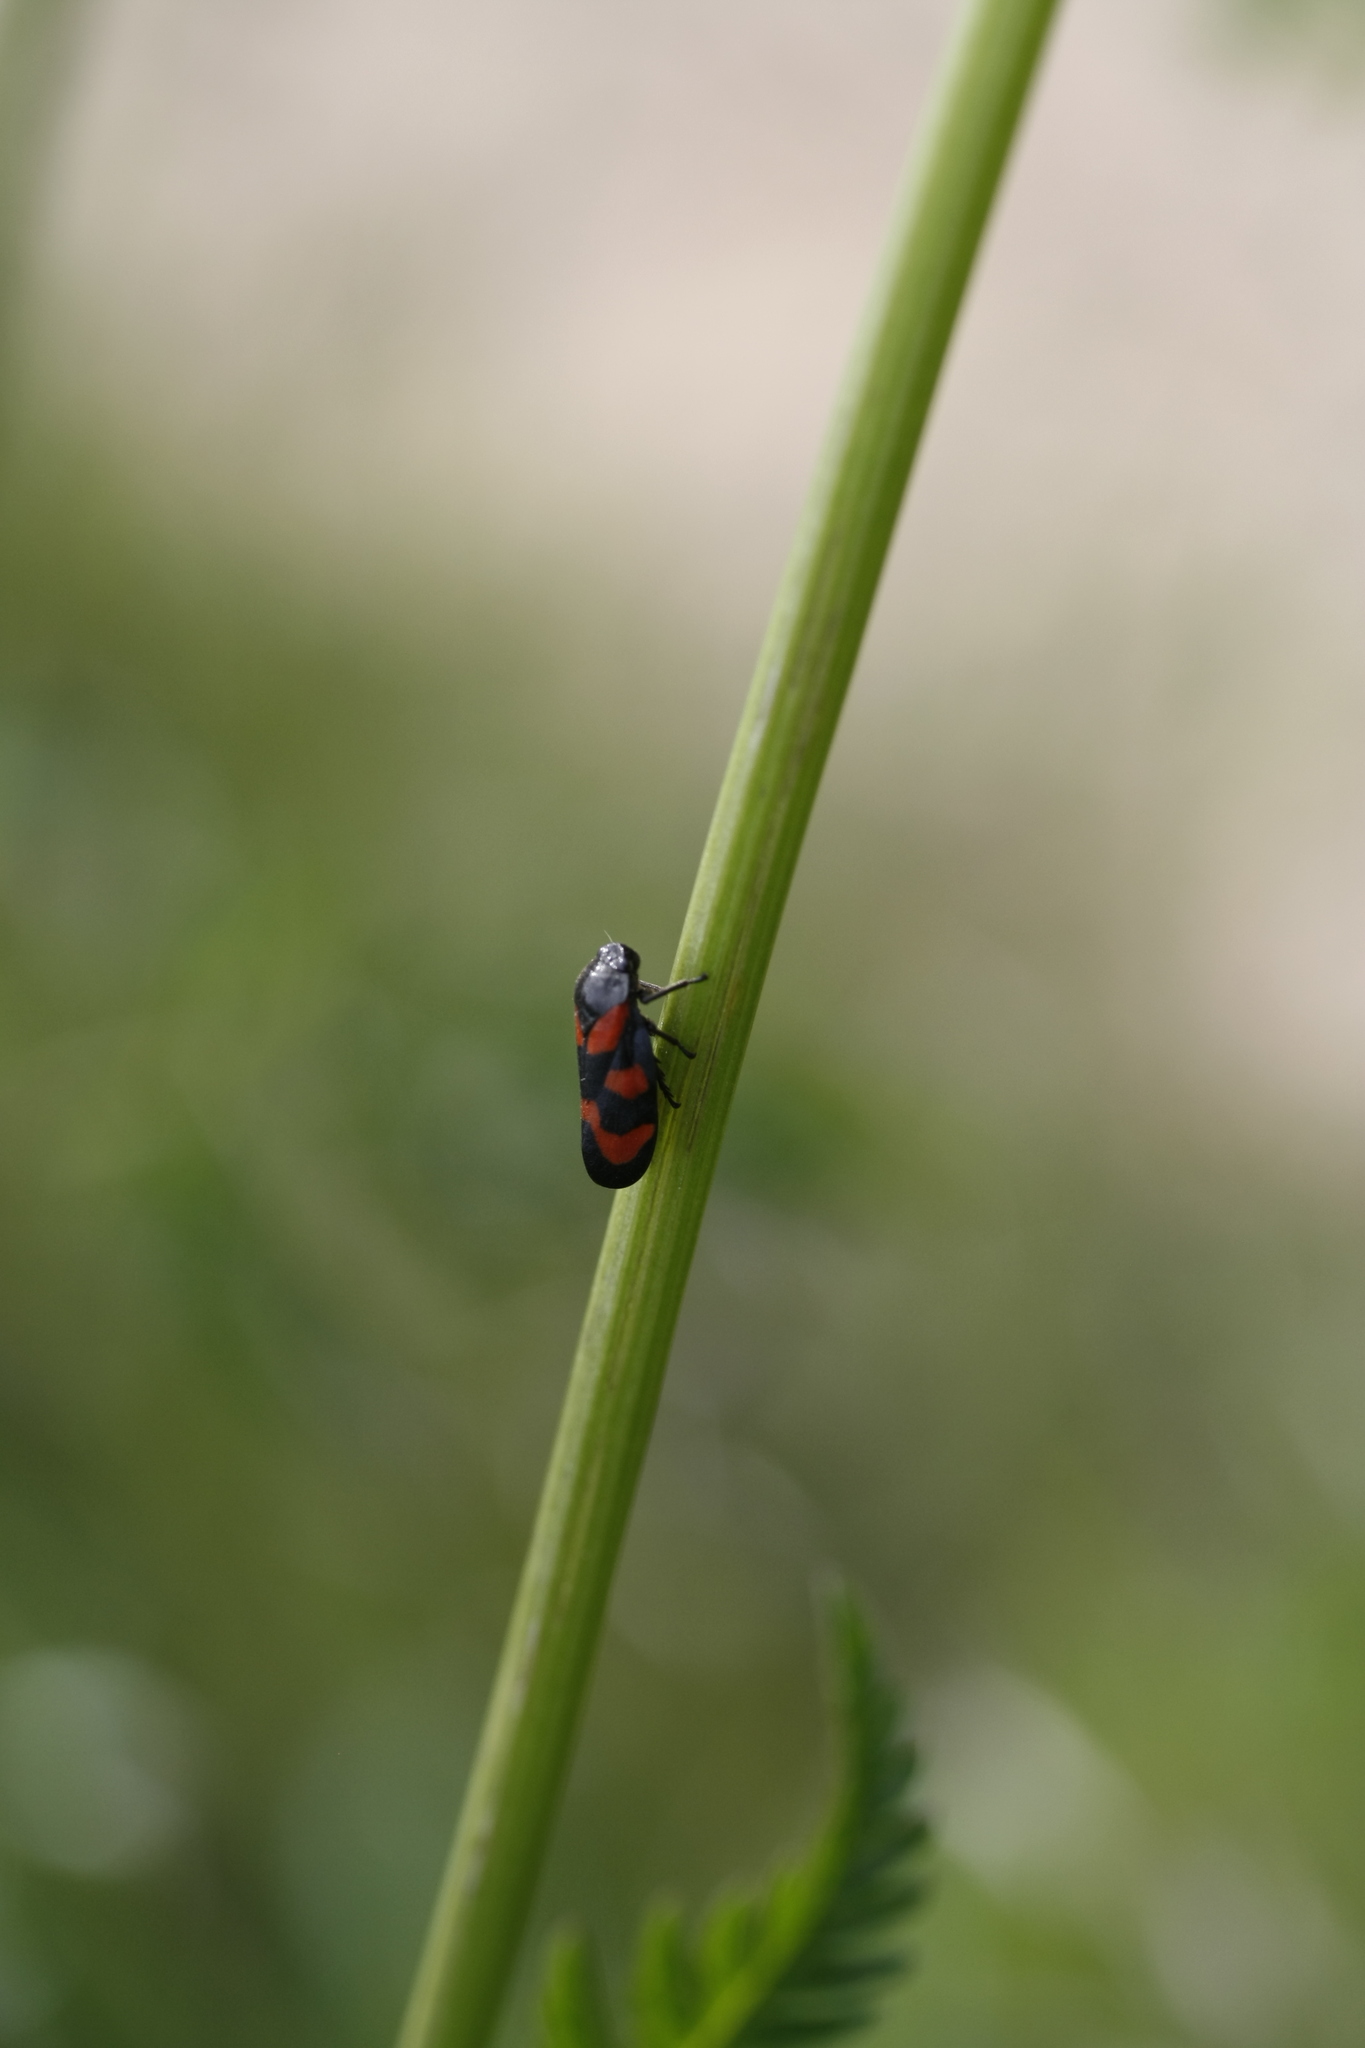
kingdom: Animalia
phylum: Arthropoda
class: Insecta
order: Hemiptera
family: Cercopidae
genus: Cercopis
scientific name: Cercopis vulnerata
